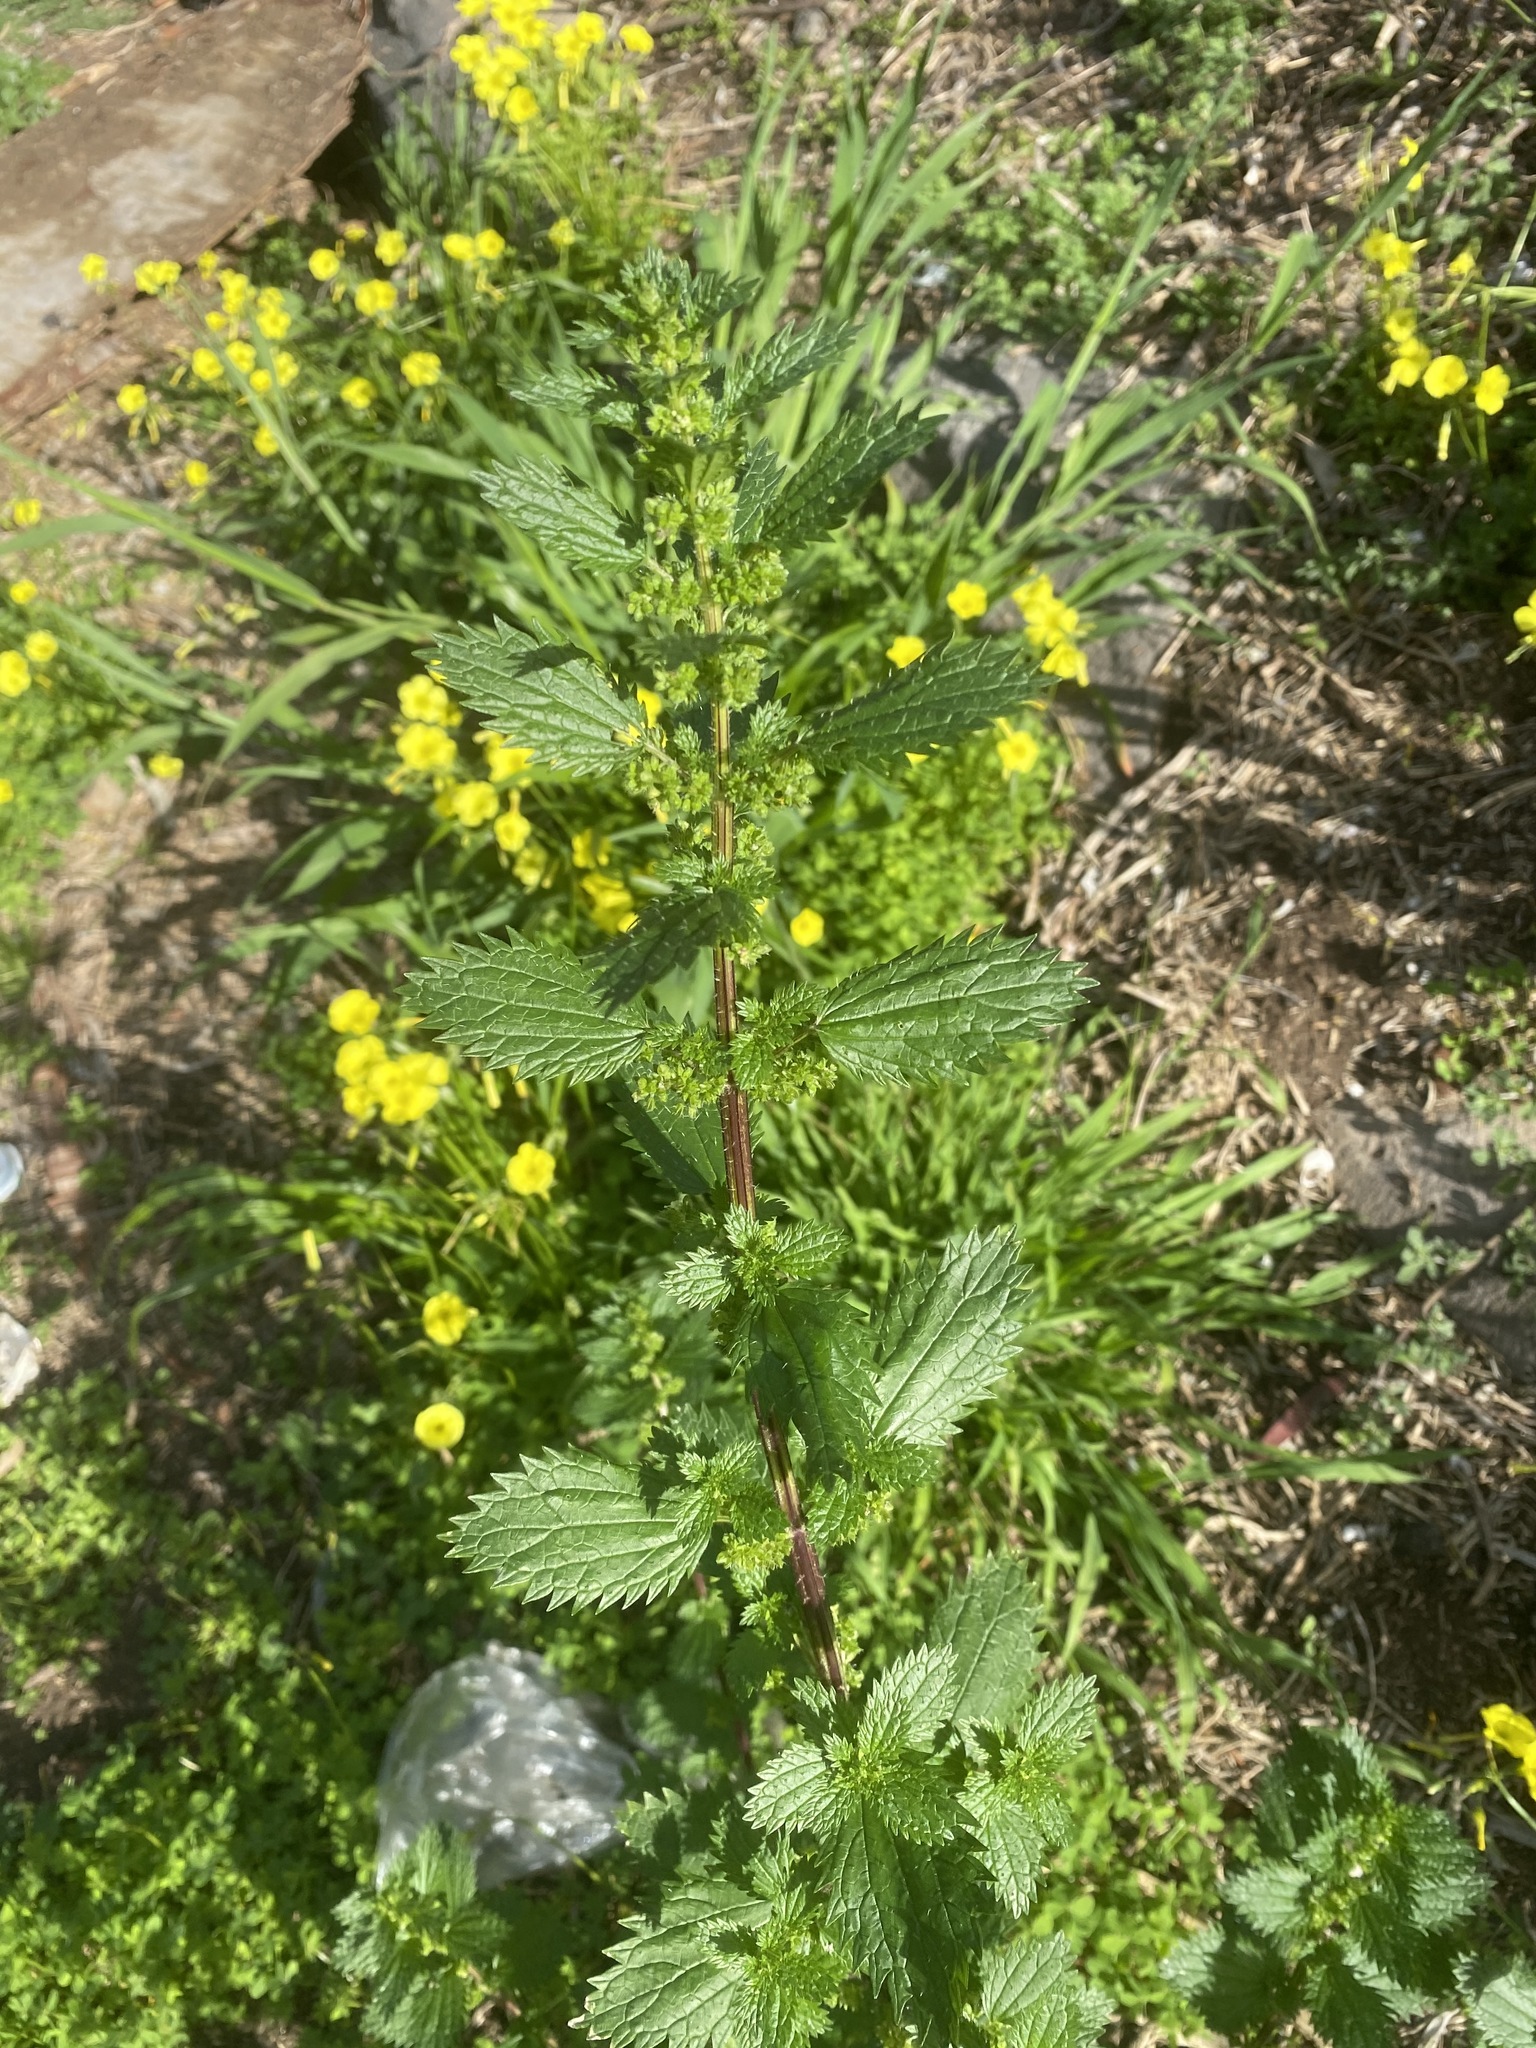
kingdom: Plantae
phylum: Tracheophyta
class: Magnoliopsida
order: Rosales
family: Urticaceae
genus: Urtica
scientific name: Urtica urens
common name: Dwarf nettle
